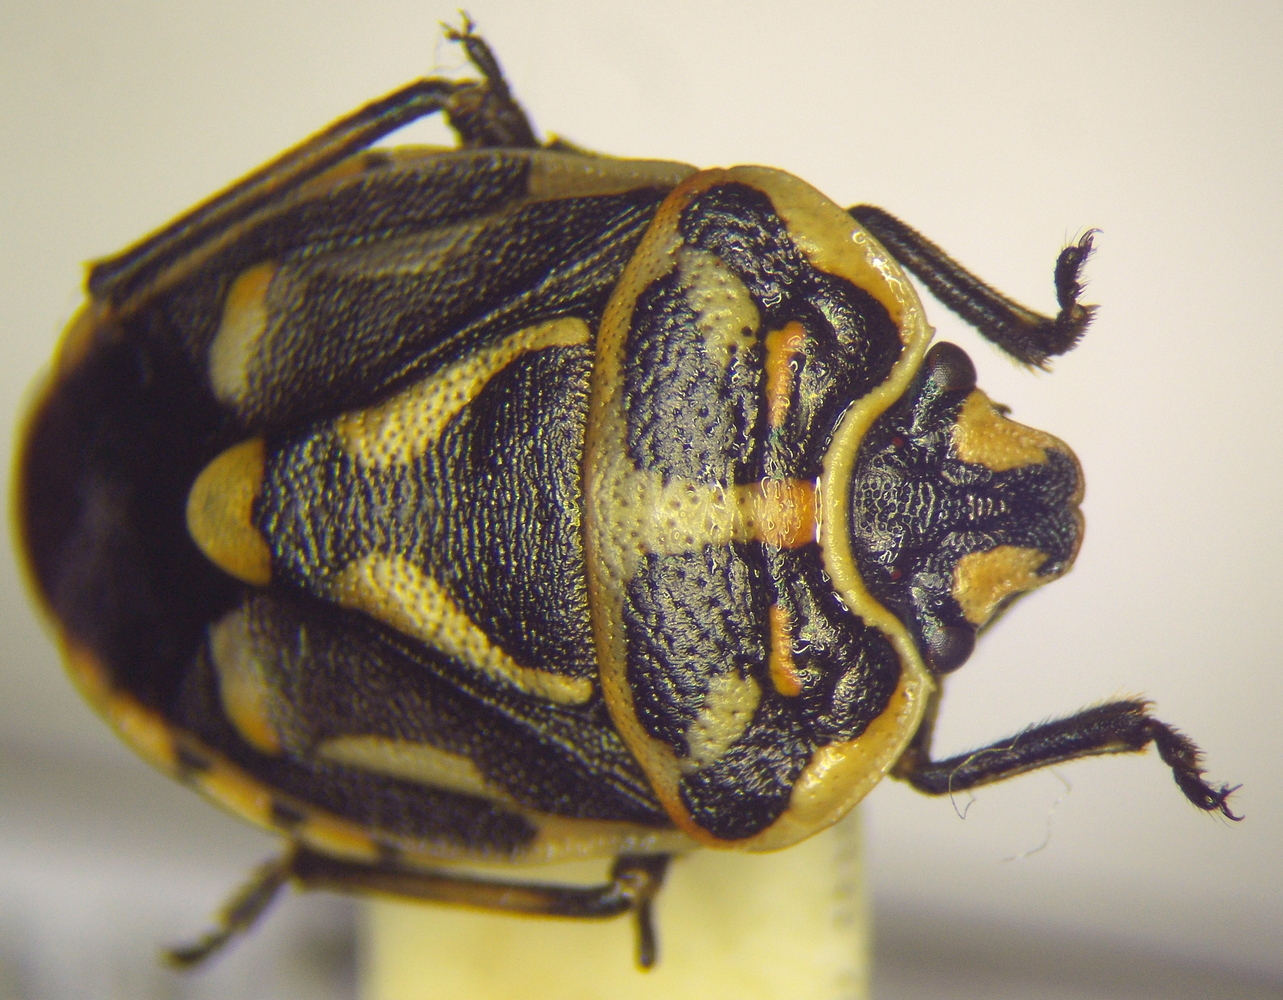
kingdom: Animalia
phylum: Arthropoda
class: Insecta
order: Hemiptera
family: Pentatomidae
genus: Eurydema
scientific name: Eurydema fieberi
